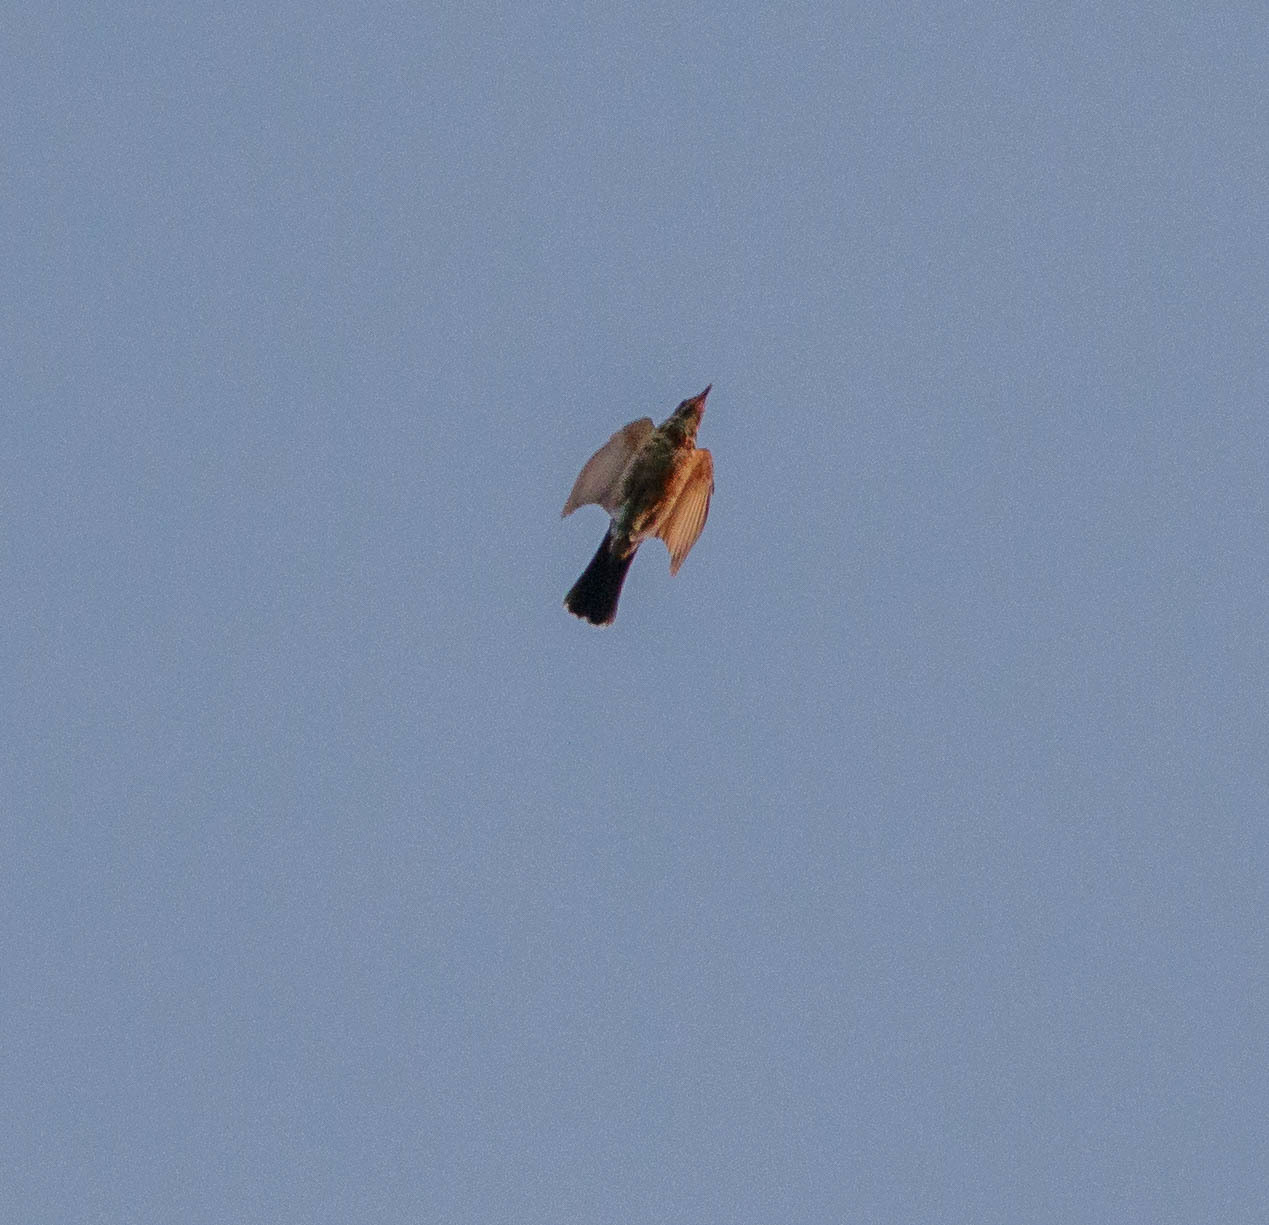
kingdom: Animalia
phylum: Chordata
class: Aves
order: Passeriformes
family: Turdidae
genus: Turdus
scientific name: Turdus migratorius
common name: American robin
